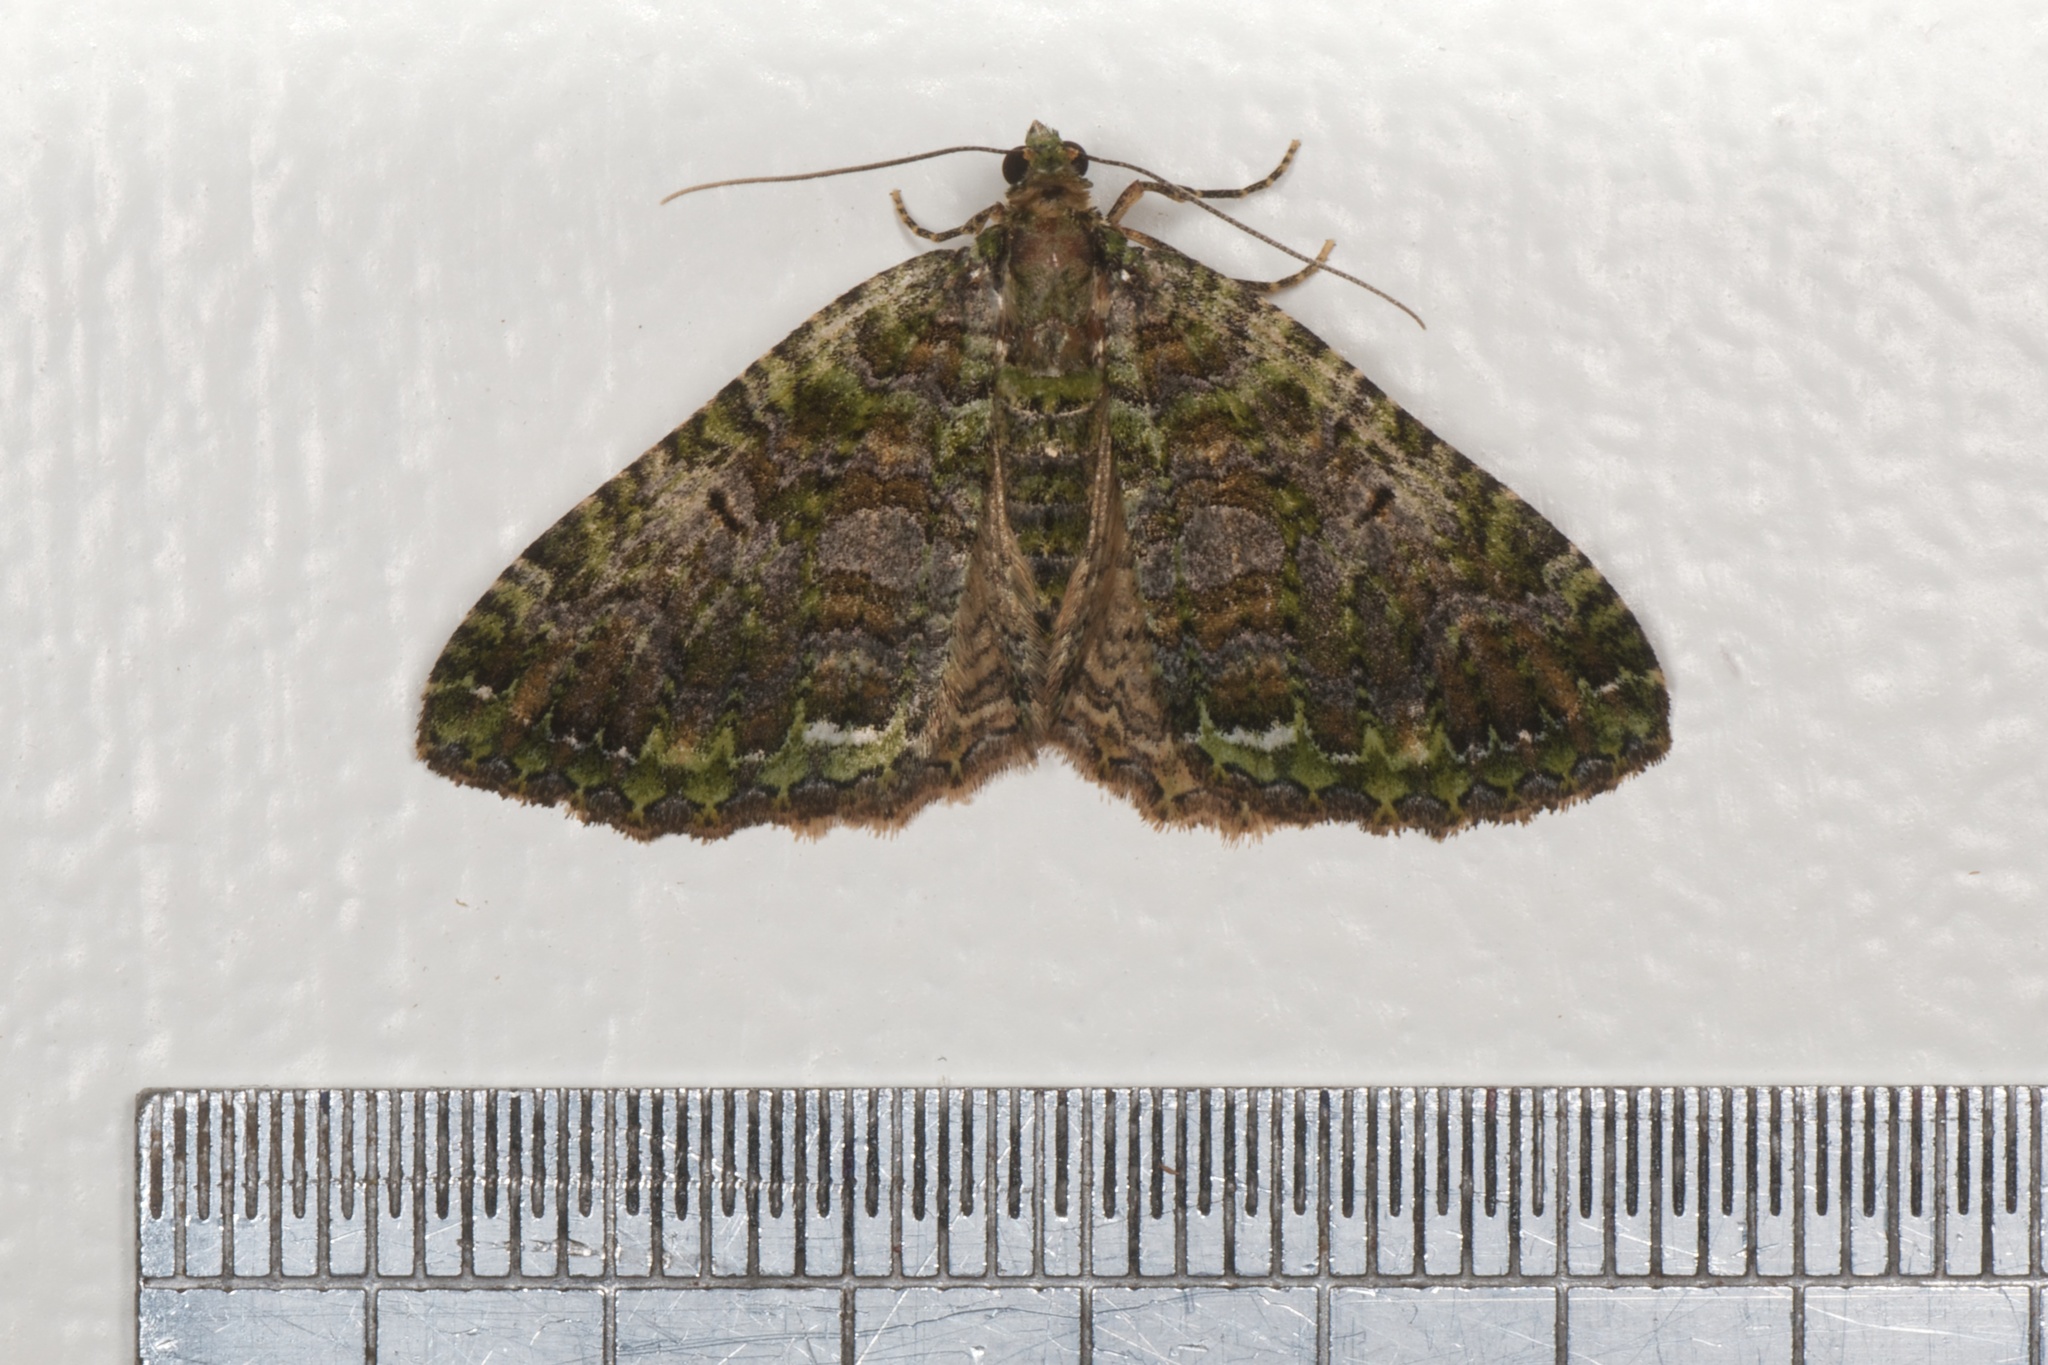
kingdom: Animalia
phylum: Arthropoda
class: Insecta
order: Lepidoptera
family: Geometridae
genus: Austrocidaria
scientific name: Austrocidaria similata
